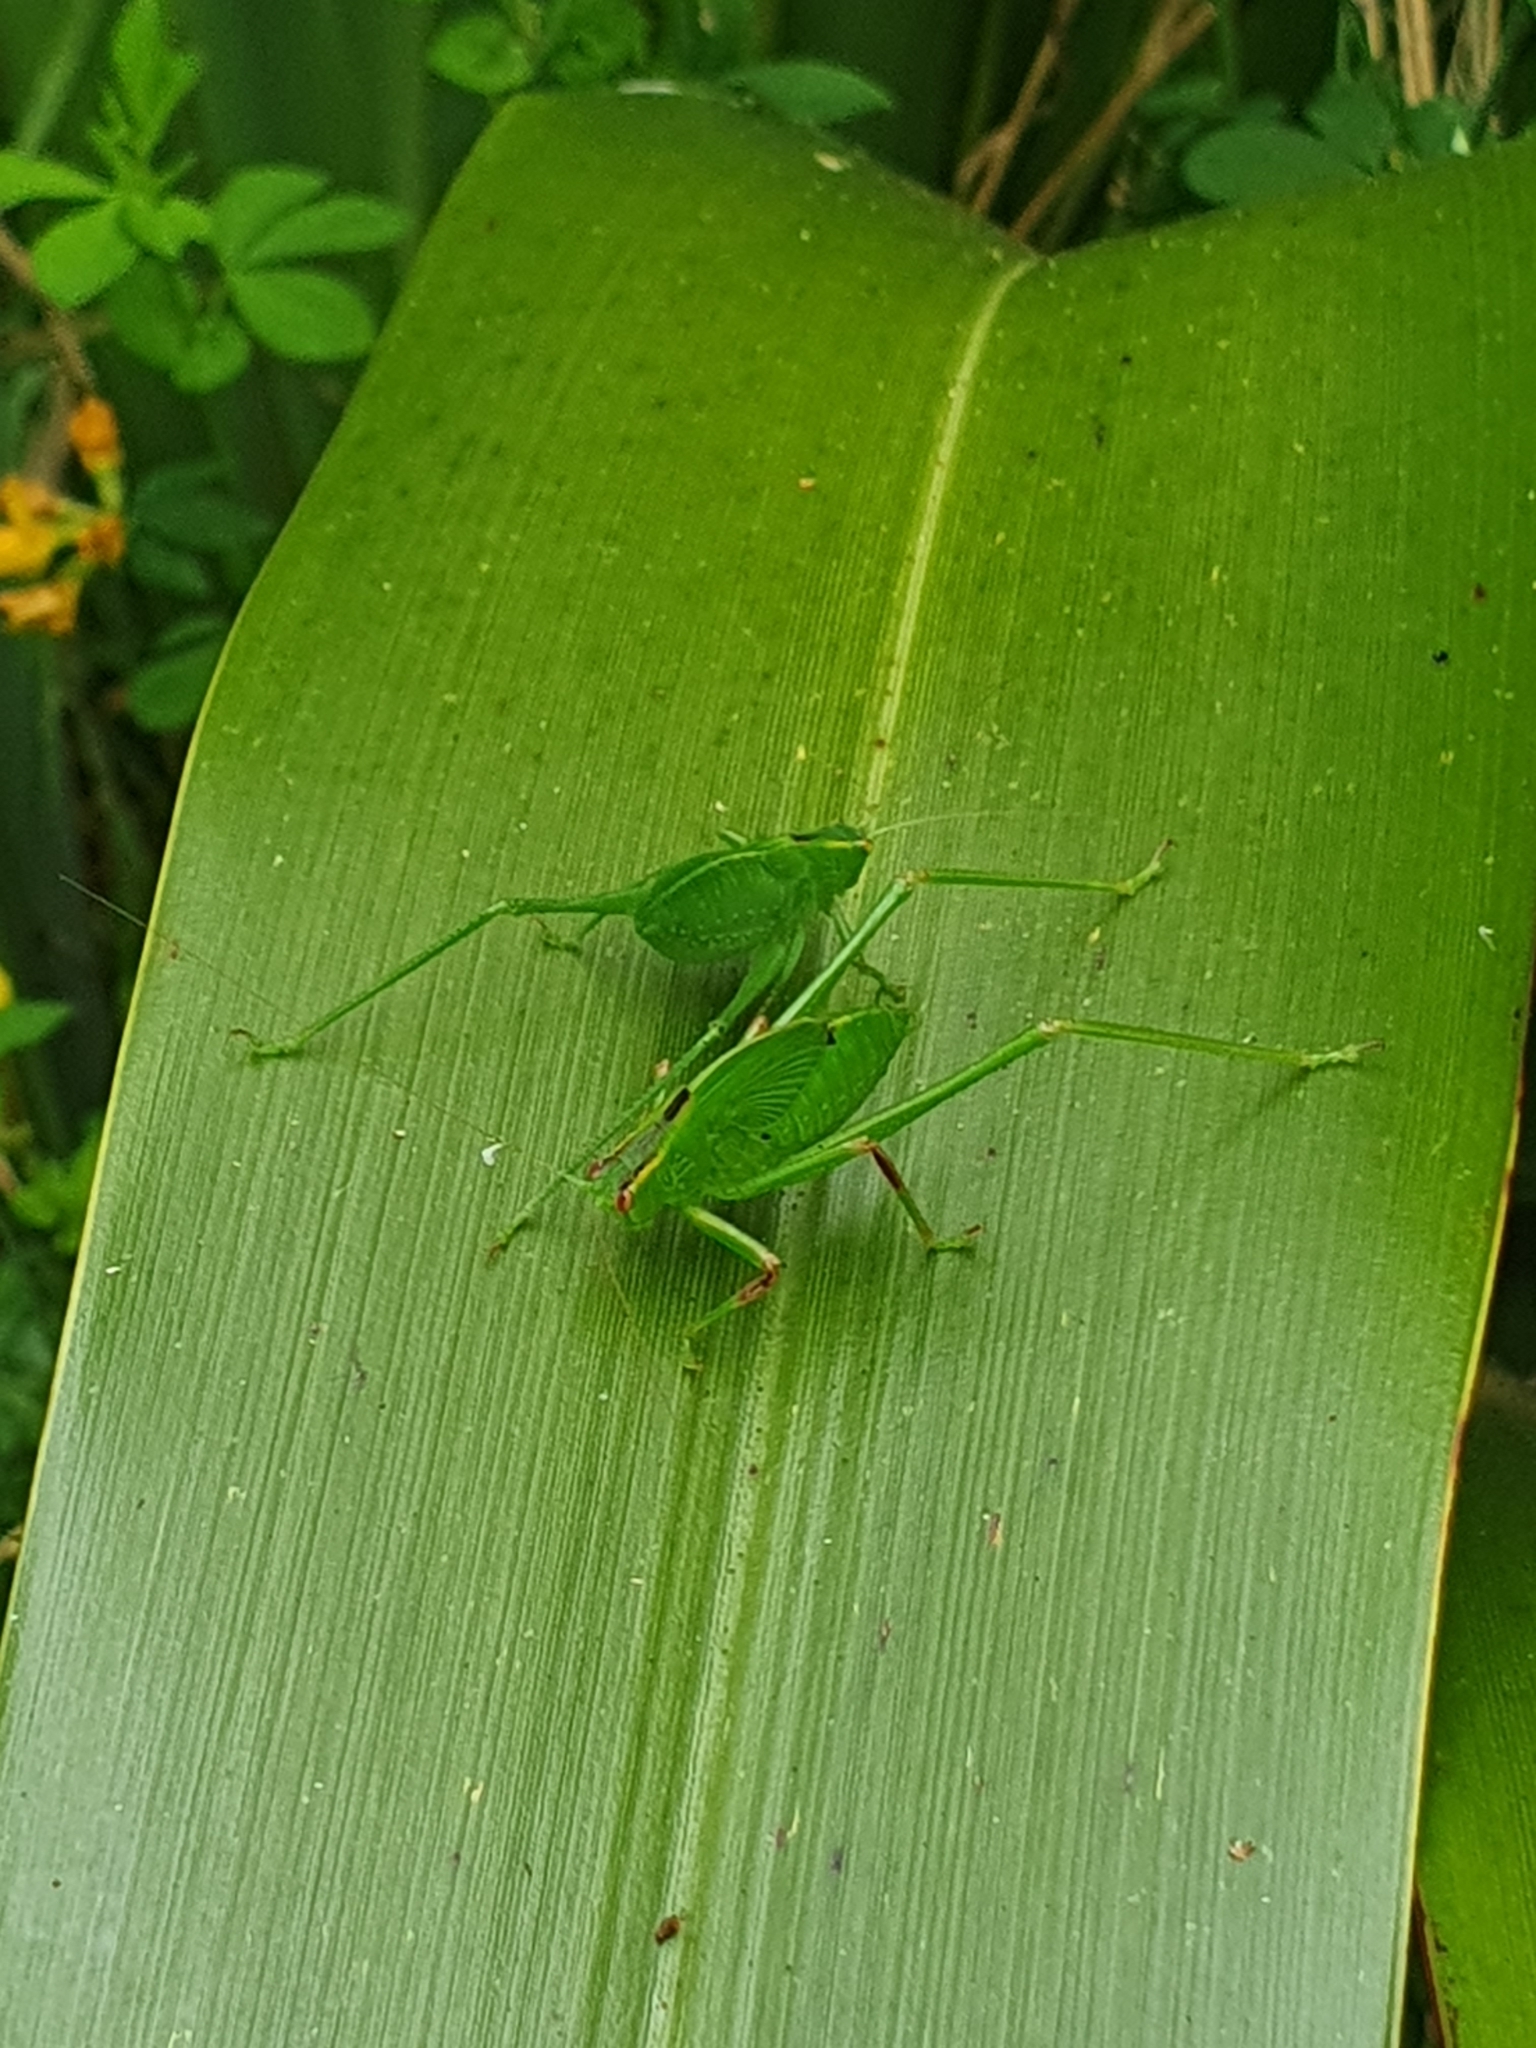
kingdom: Animalia
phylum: Arthropoda
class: Insecta
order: Orthoptera
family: Tettigoniidae
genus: Caedicia
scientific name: Caedicia simplex
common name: Common garden katydid
